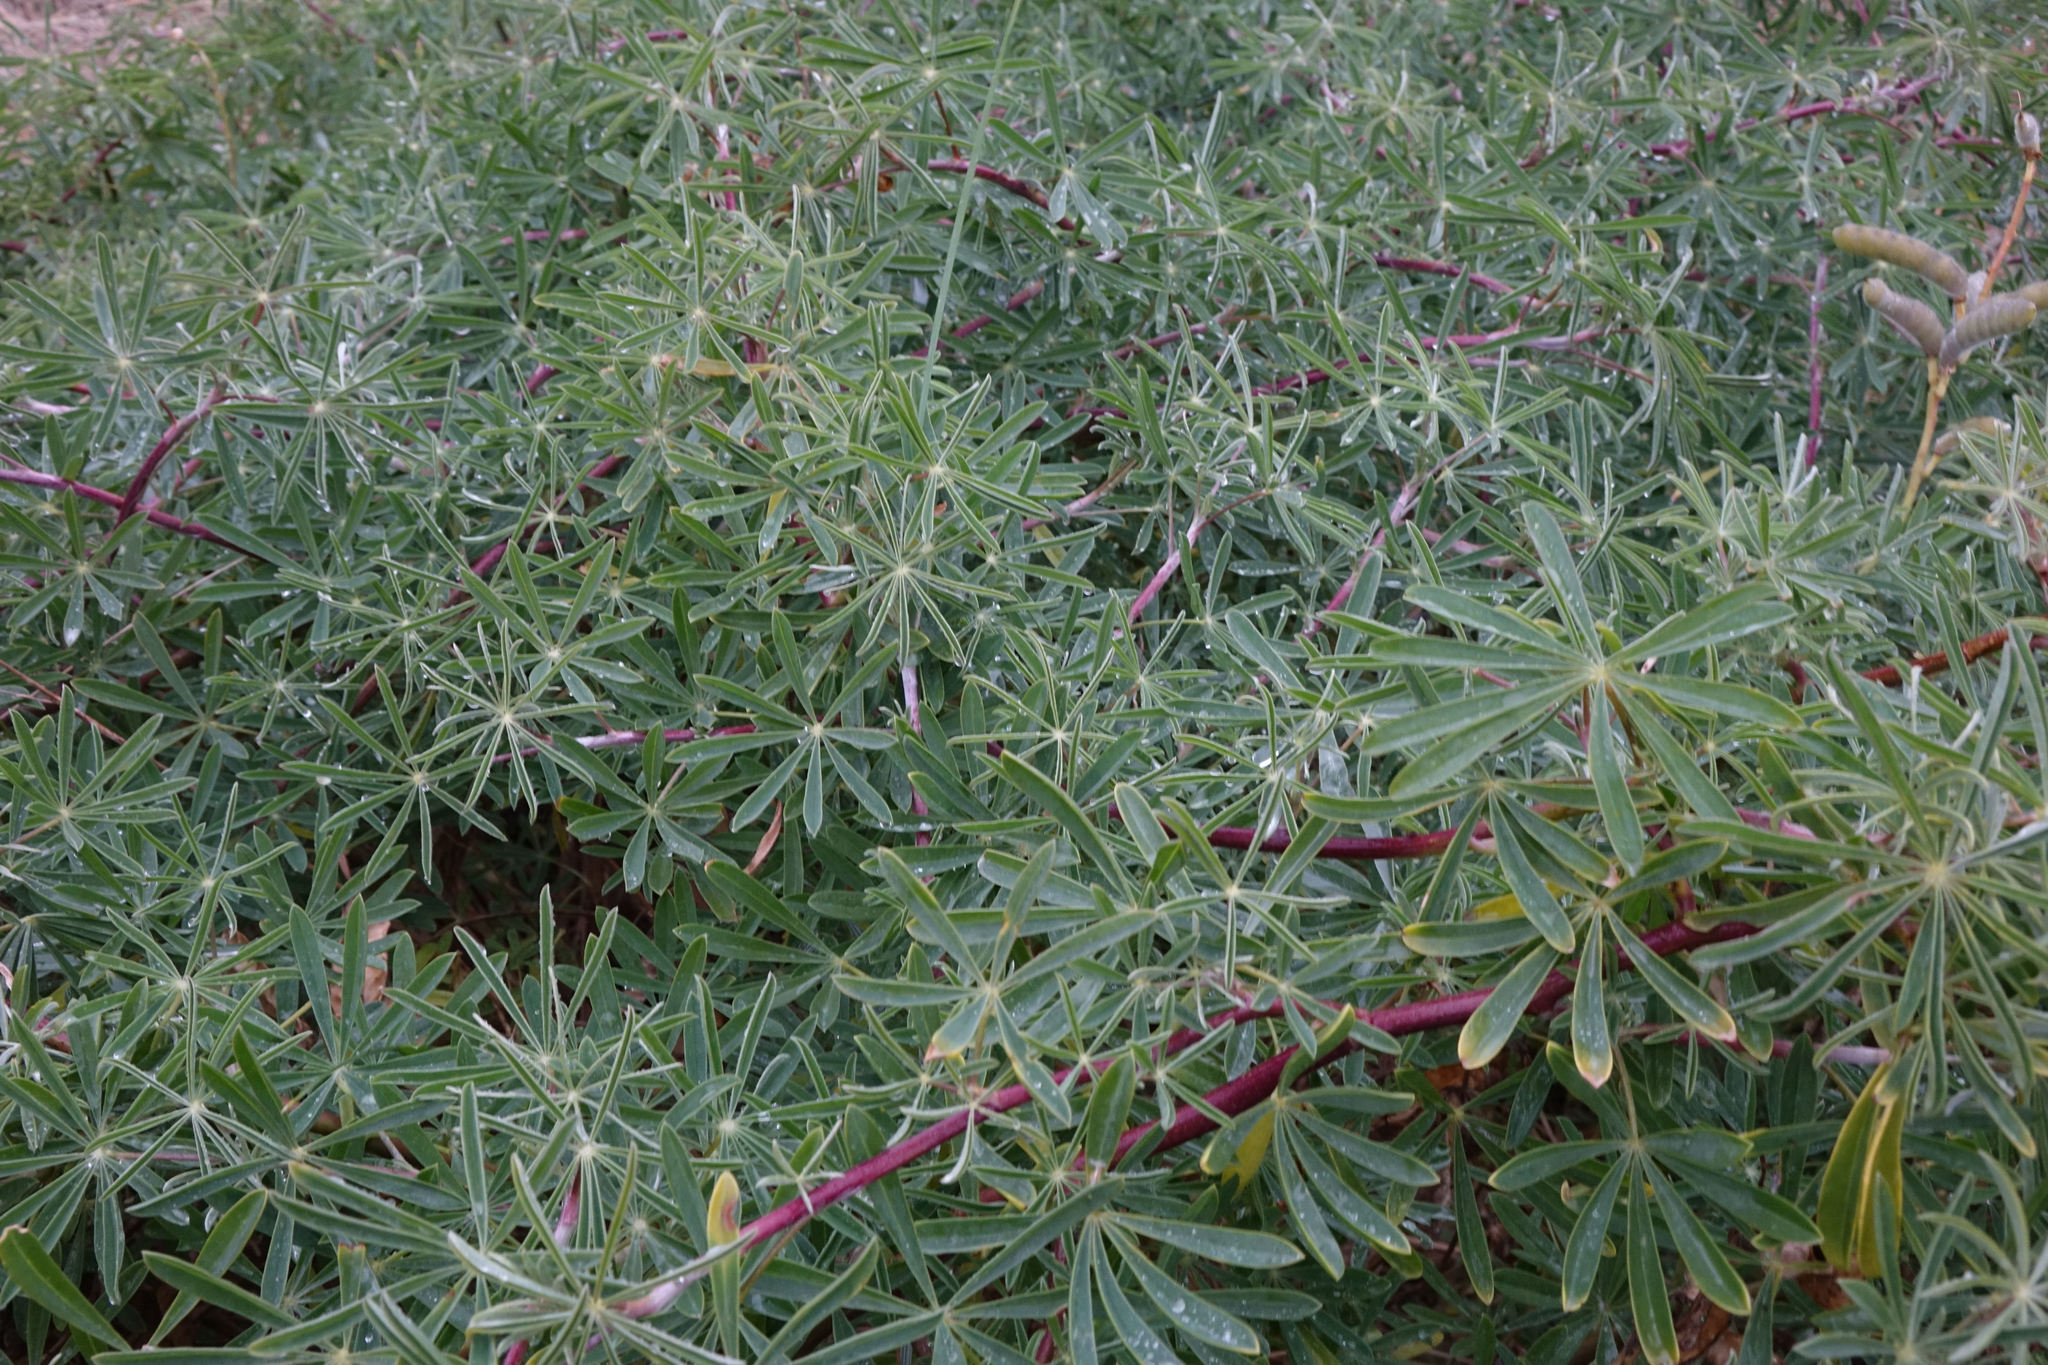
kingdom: Plantae
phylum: Tracheophyta
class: Magnoliopsida
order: Fabales
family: Fabaceae
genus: Lupinus
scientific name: Lupinus arboreus
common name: Yellow bush lupine
